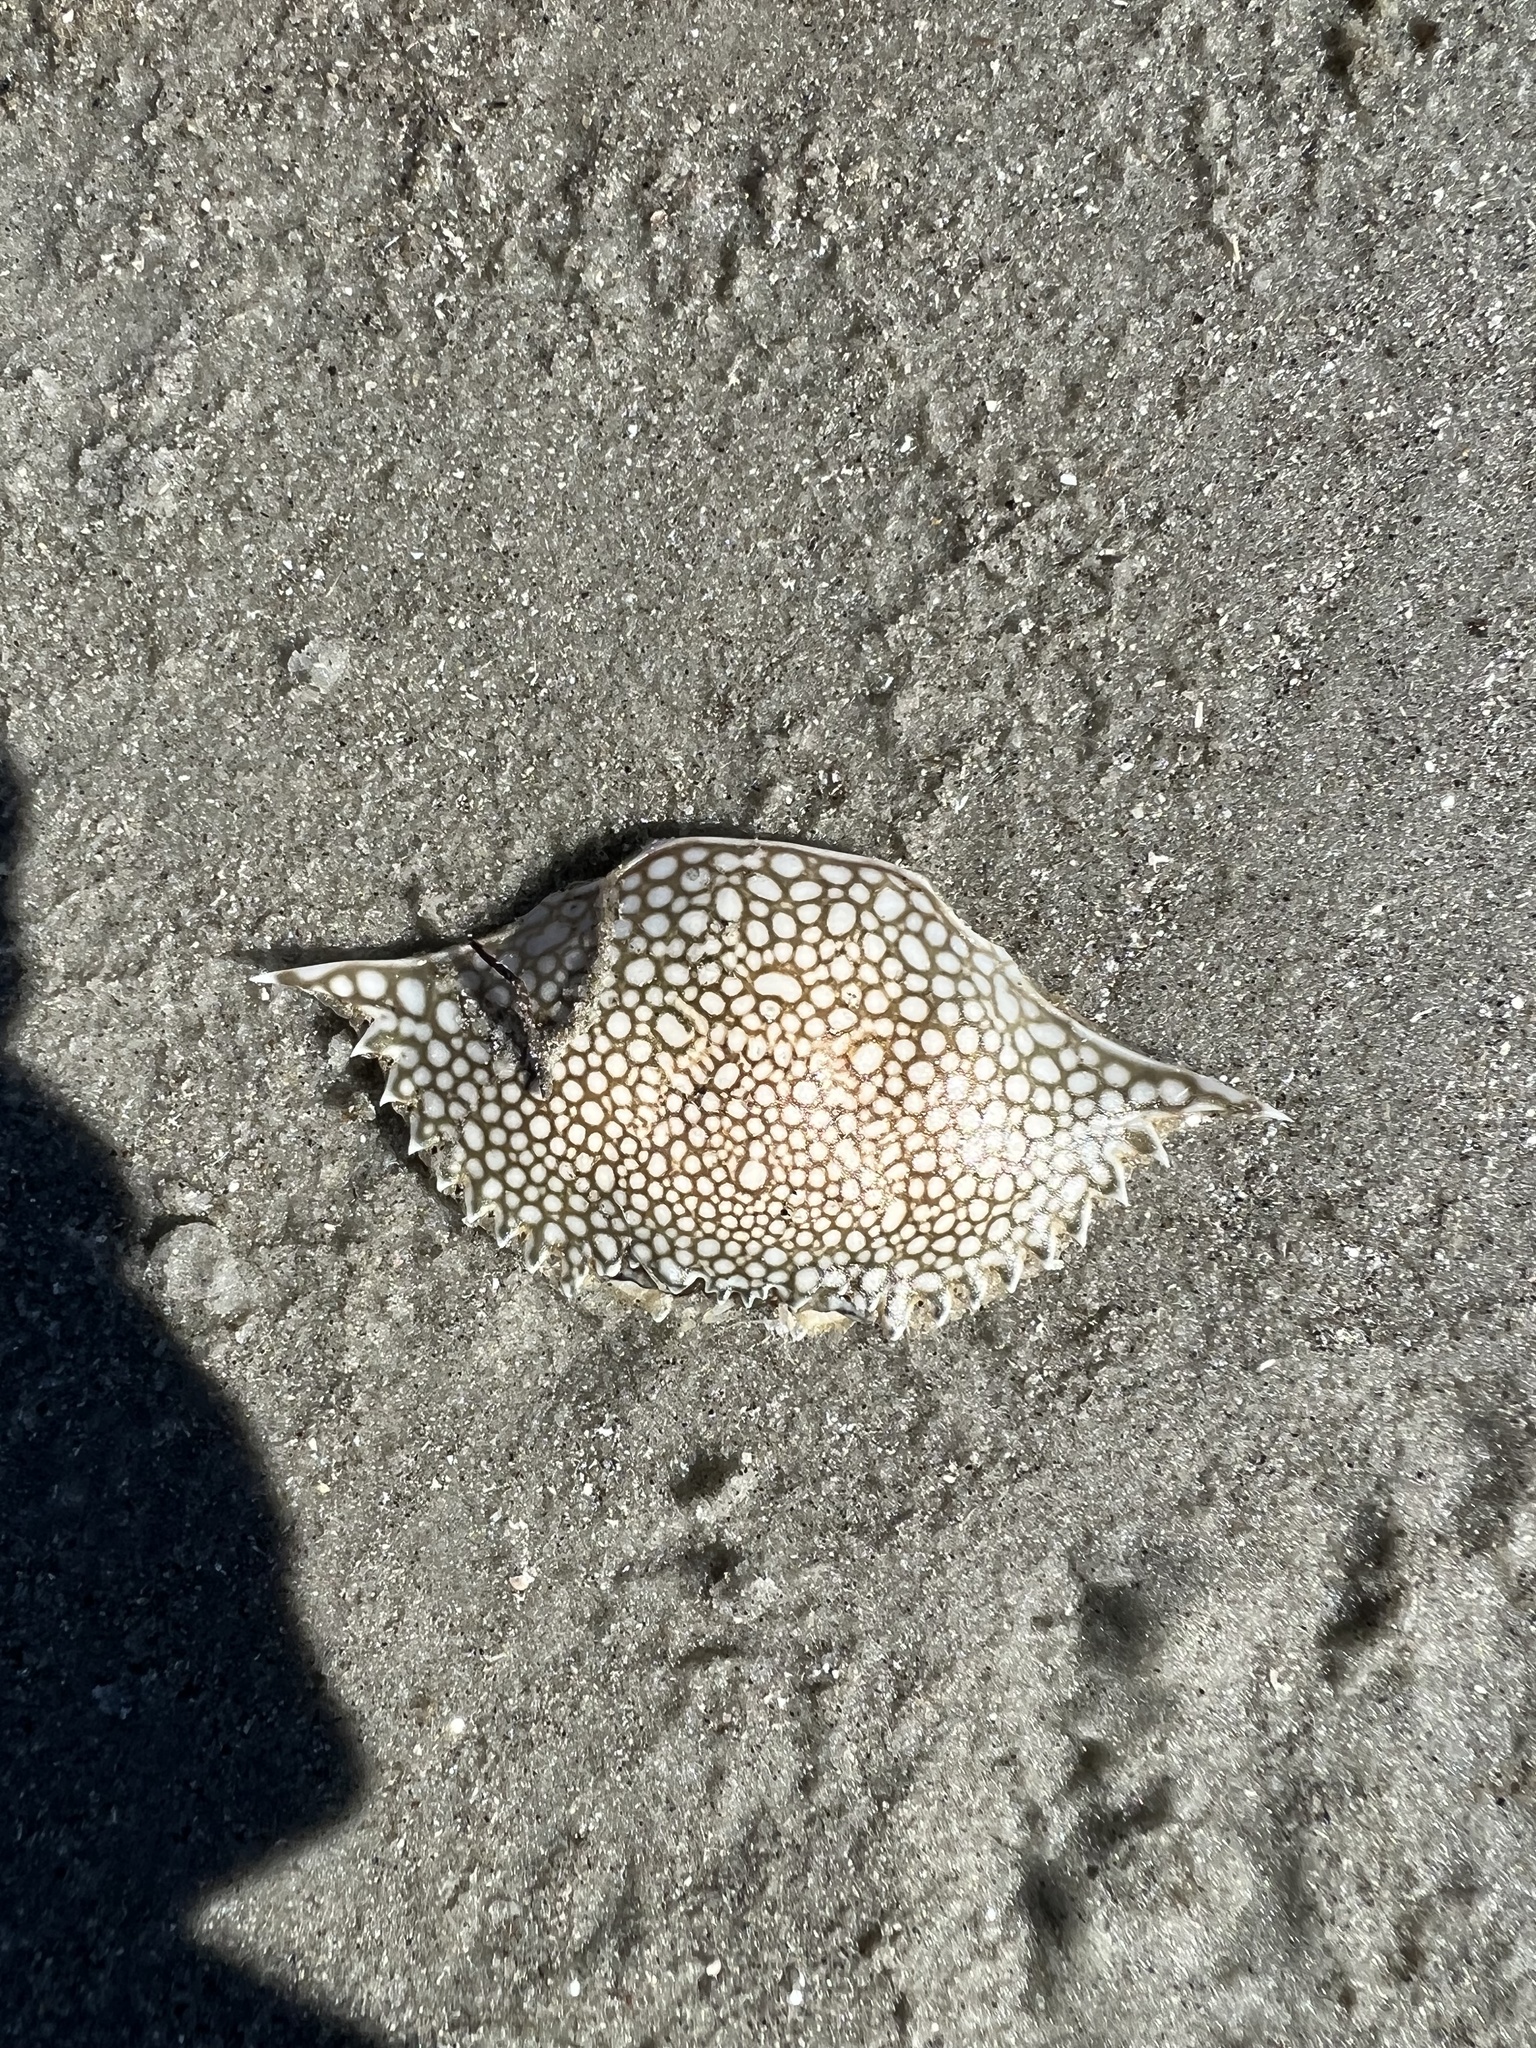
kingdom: Animalia
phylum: Arthropoda
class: Malacostraca
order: Decapoda
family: Portunidae
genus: Arenaeus
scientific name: Arenaeus cribrarius
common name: Speckled crab
